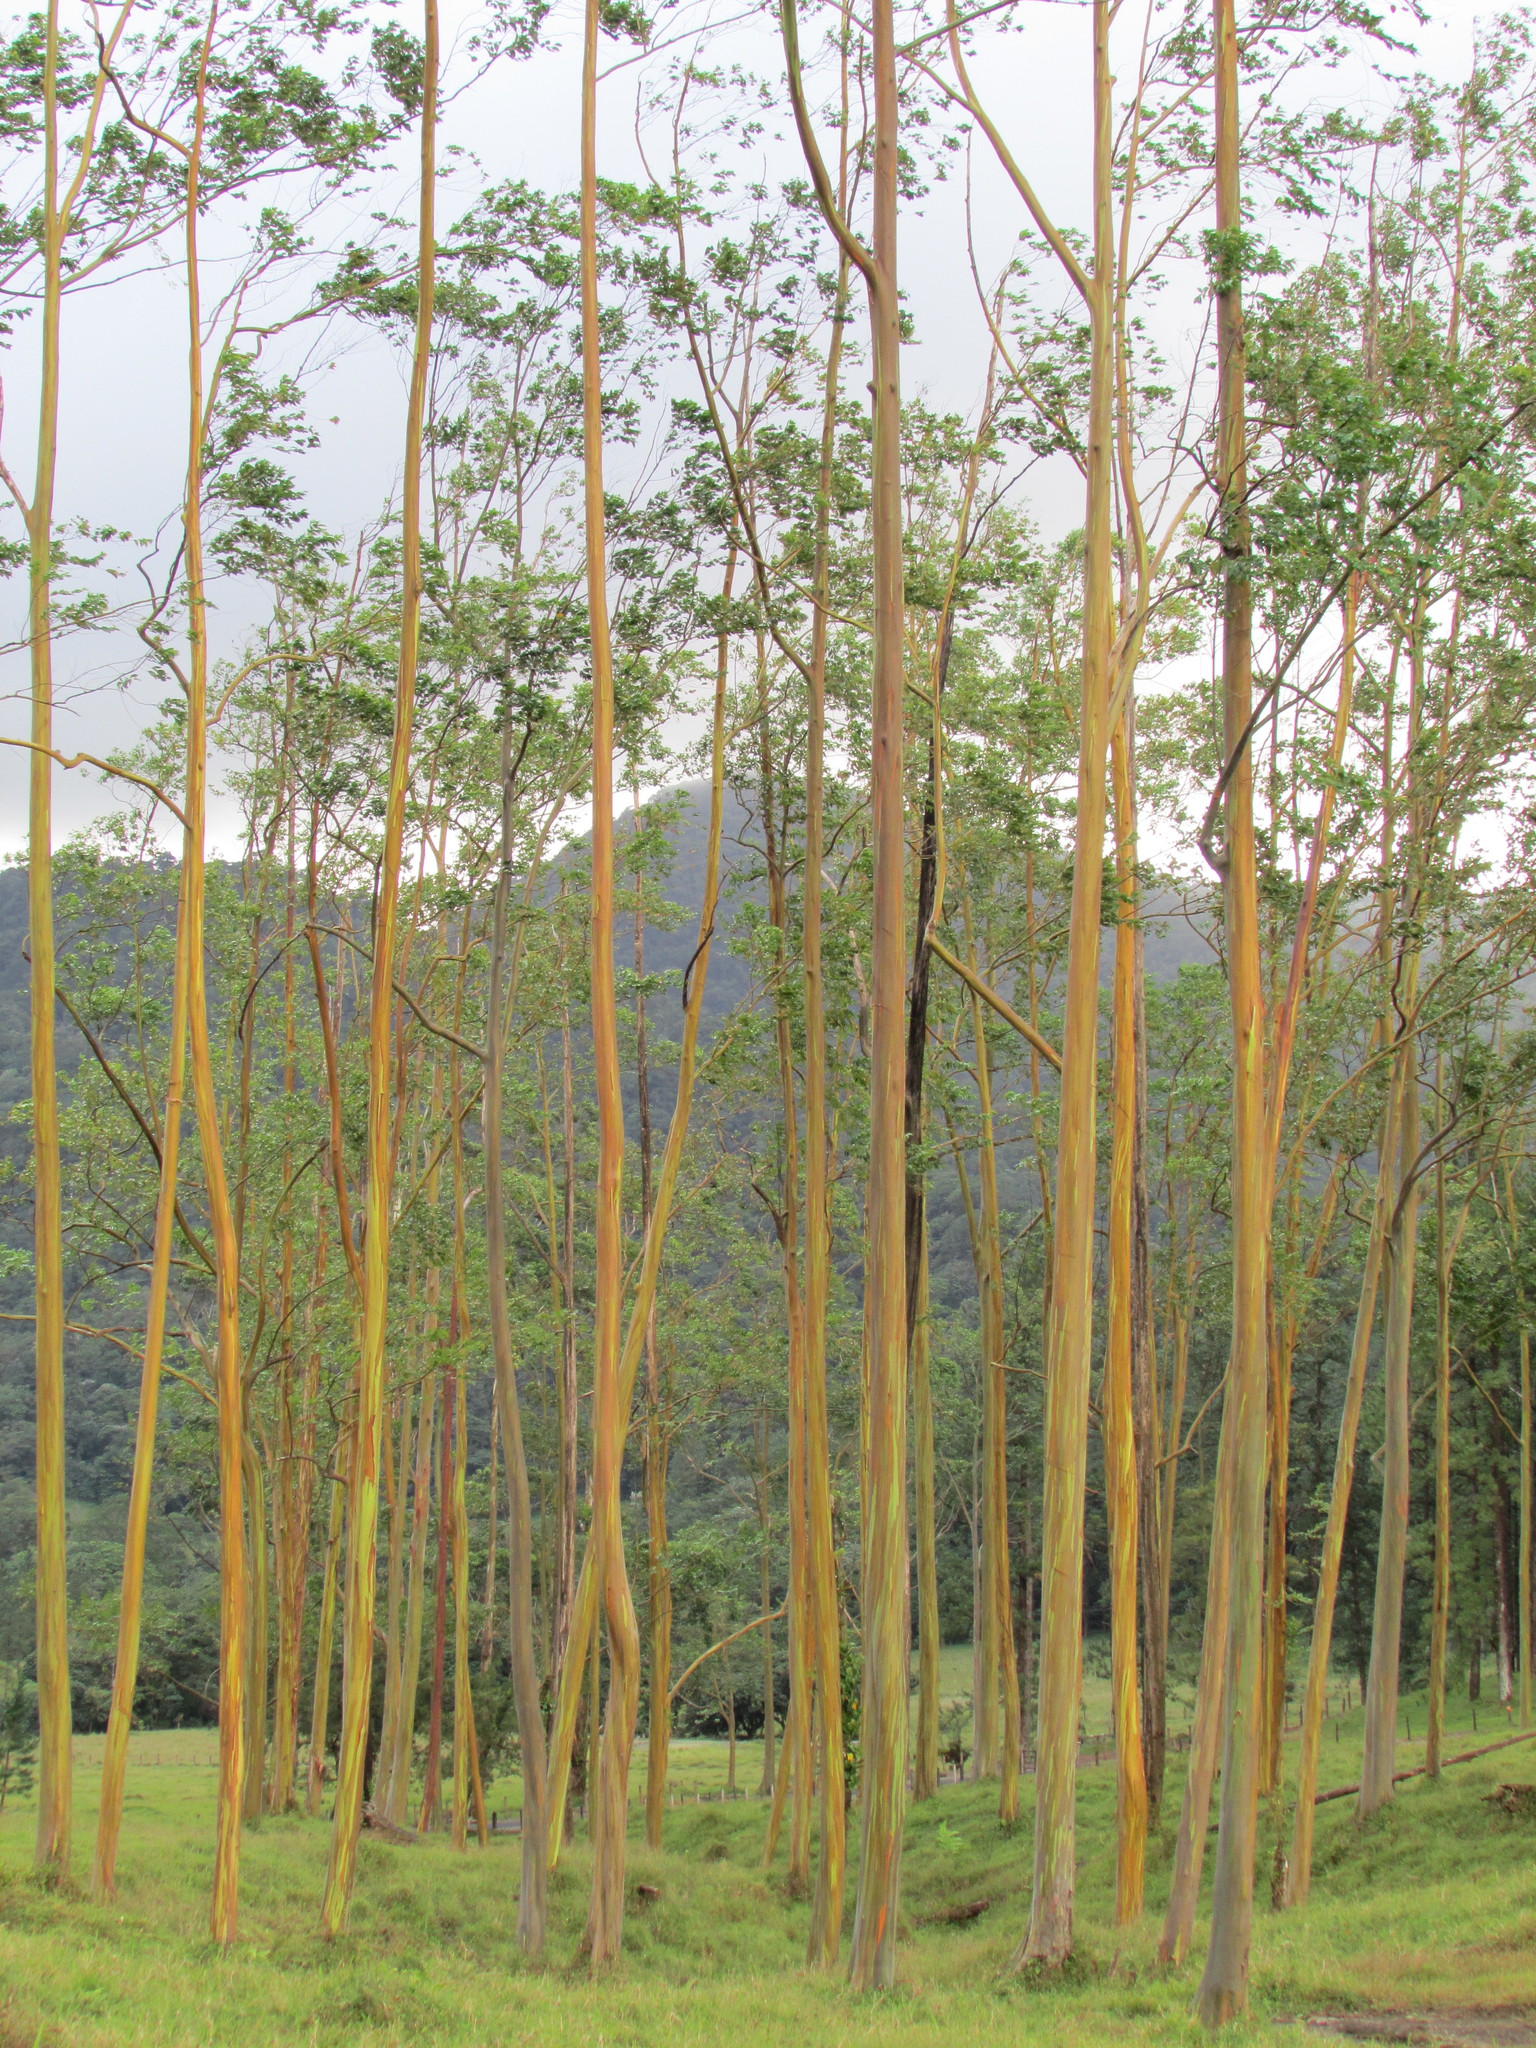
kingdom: Plantae
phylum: Tracheophyta
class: Magnoliopsida
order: Myrtales
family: Myrtaceae
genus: Eucalyptus
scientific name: Eucalyptus deglupta
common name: Mindanao gum
